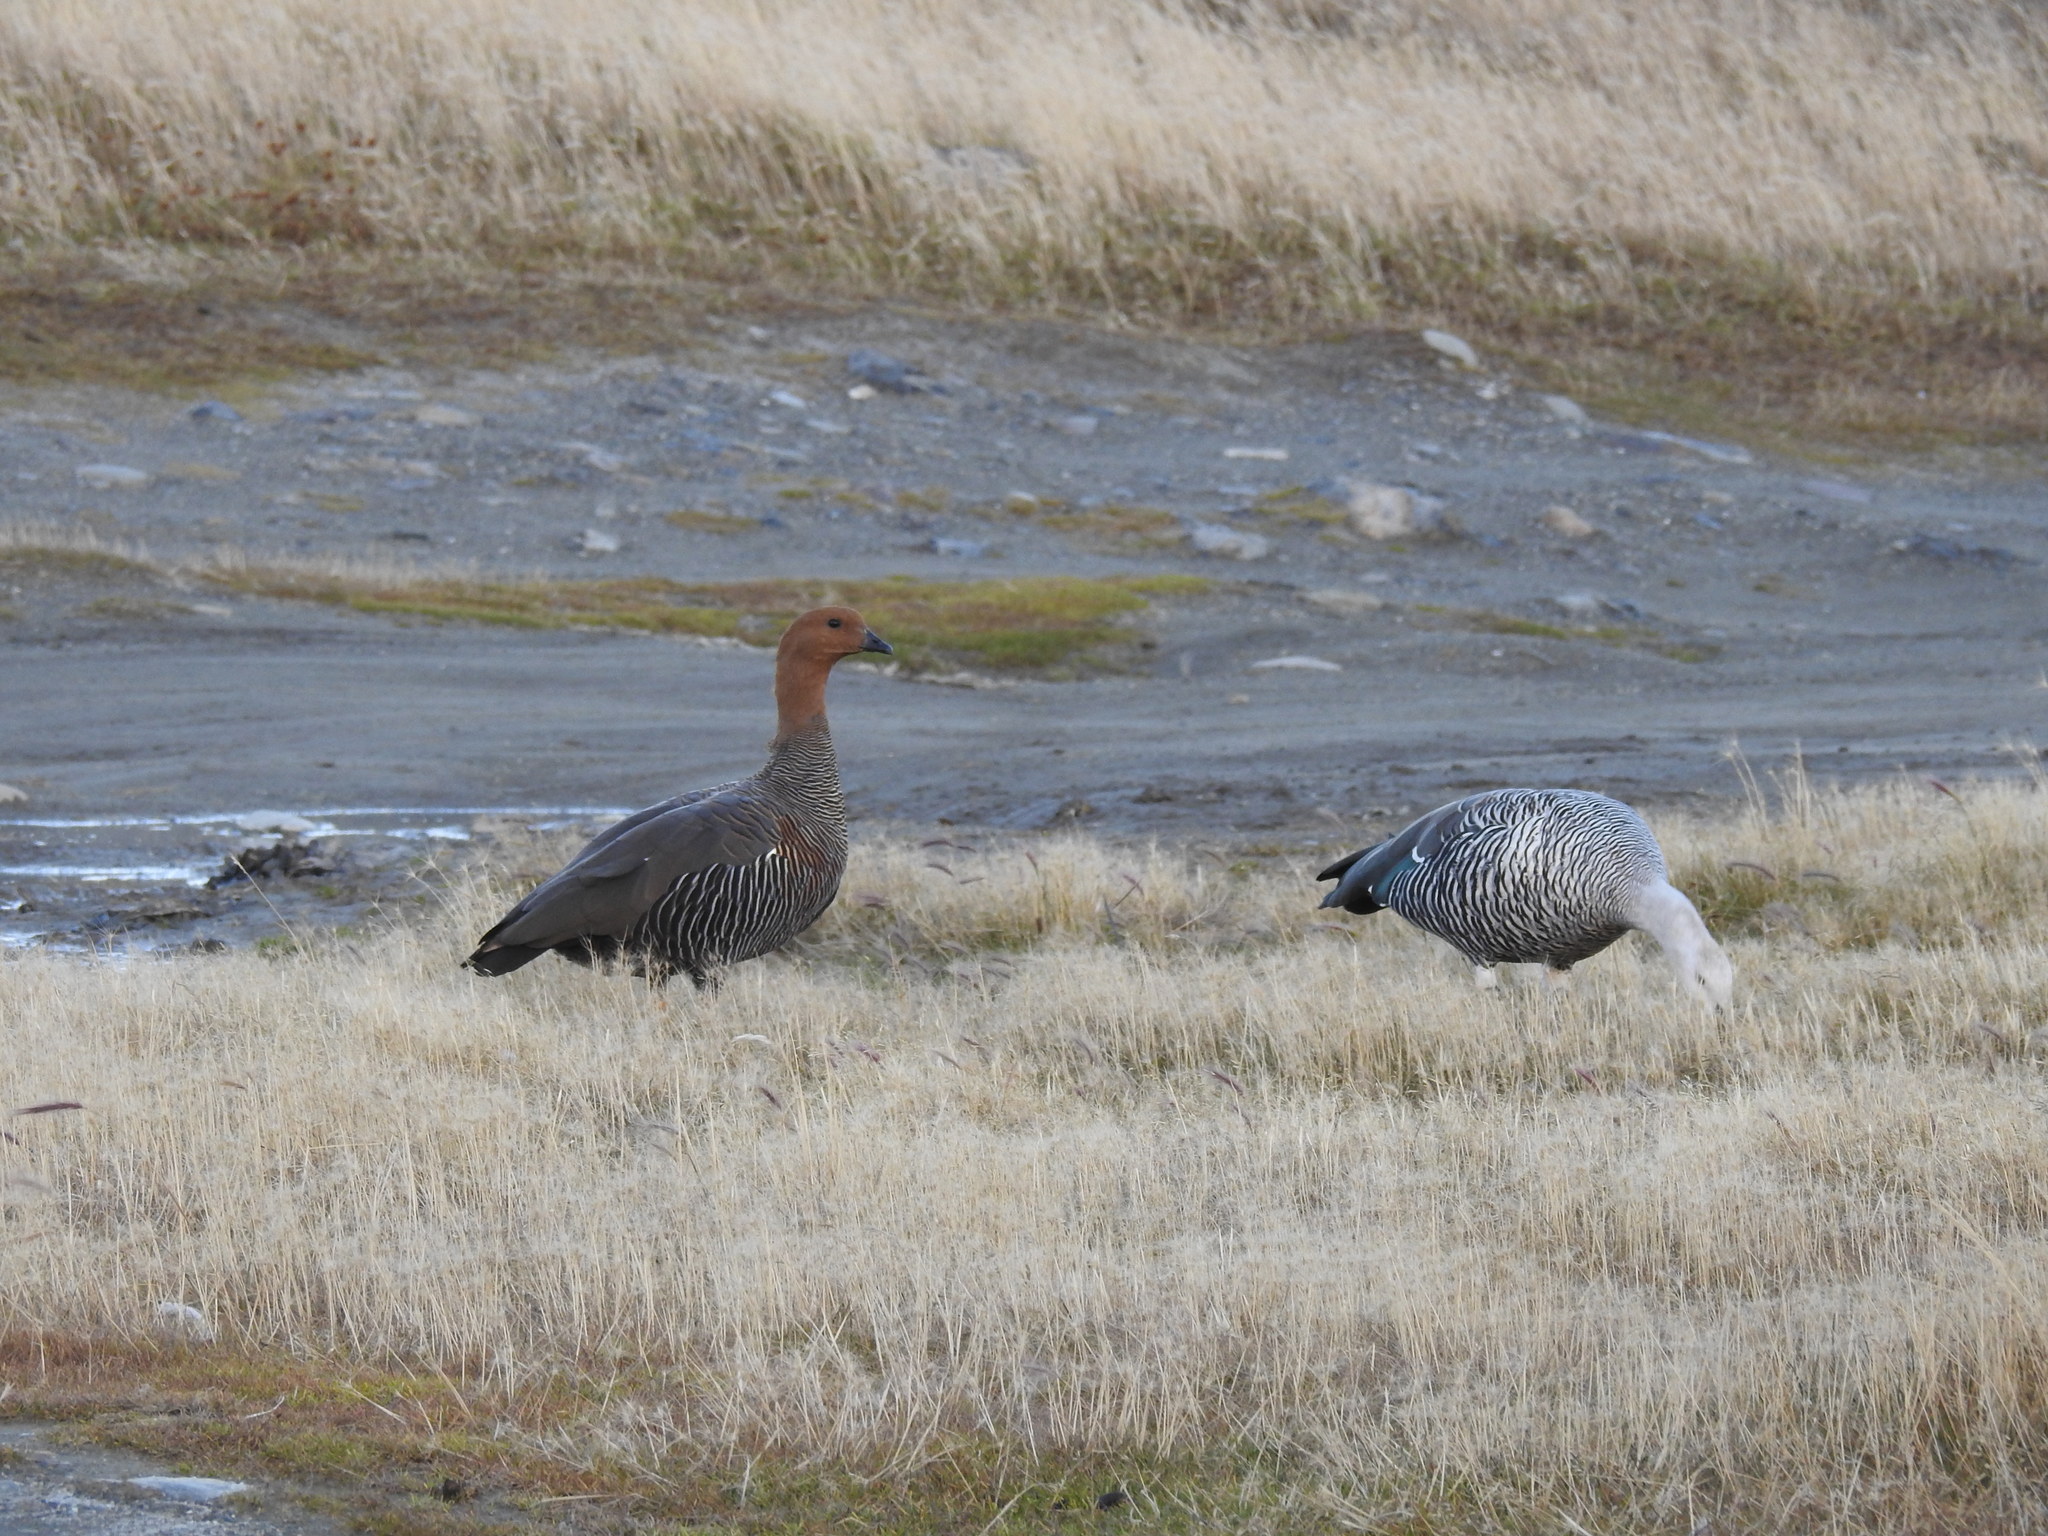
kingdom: Animalia
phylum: Chordata
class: Aves
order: Anseriformes
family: Anatidae
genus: Chloephaga
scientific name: Chloephaga picta
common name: Upland goose
